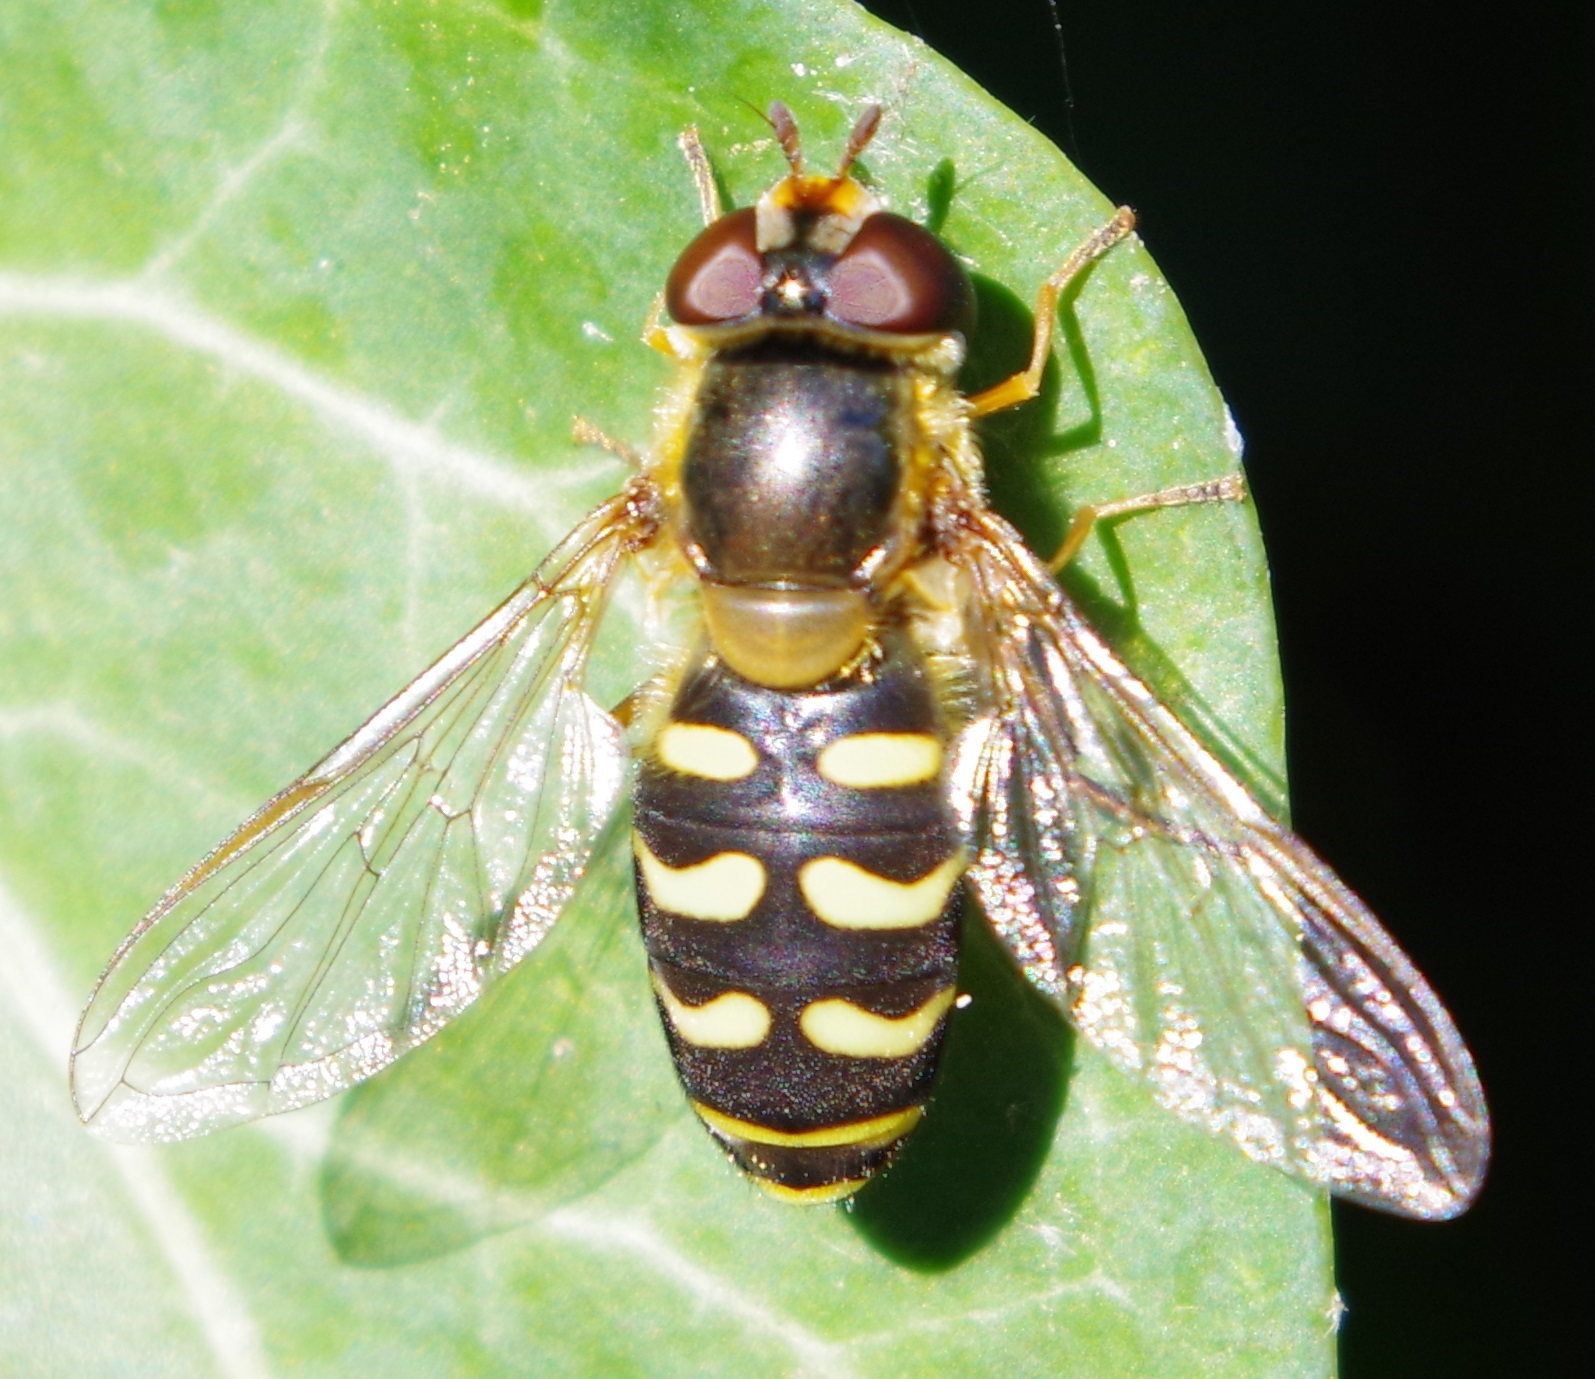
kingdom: Animalia
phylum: Arthropoda
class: Insecta
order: Diptera
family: Syrphidae
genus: Scaeva
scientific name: Scaeva pyrastri
